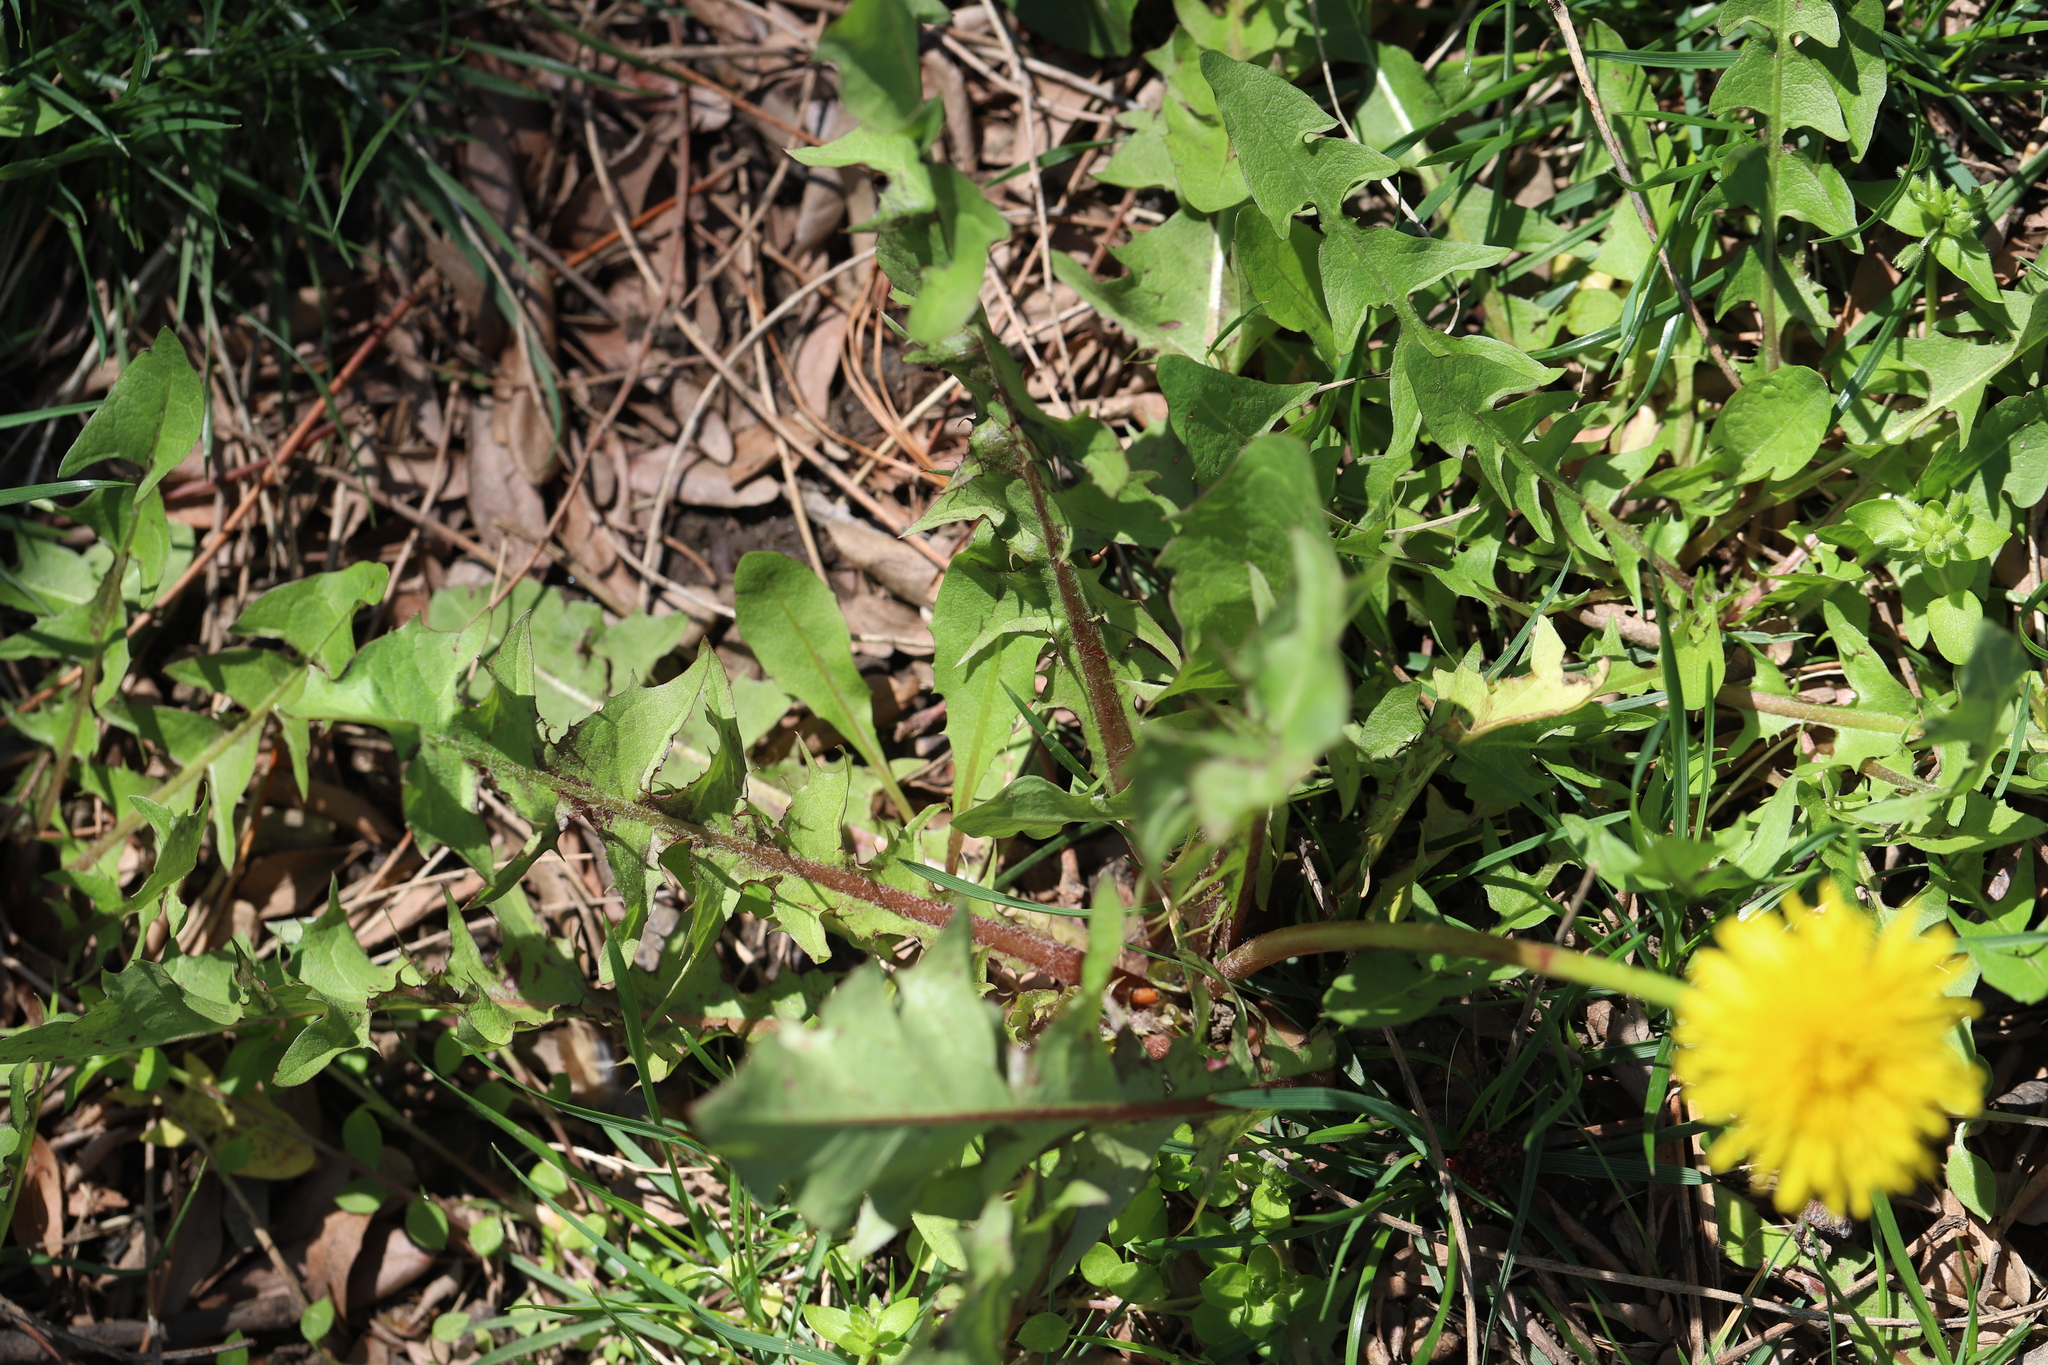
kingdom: Plantae
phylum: Tracheophyta
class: Magnoliopsida
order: Asterales
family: Asteraceae
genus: Taraxacum
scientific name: Taraxacum officinale
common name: Common dandelion
